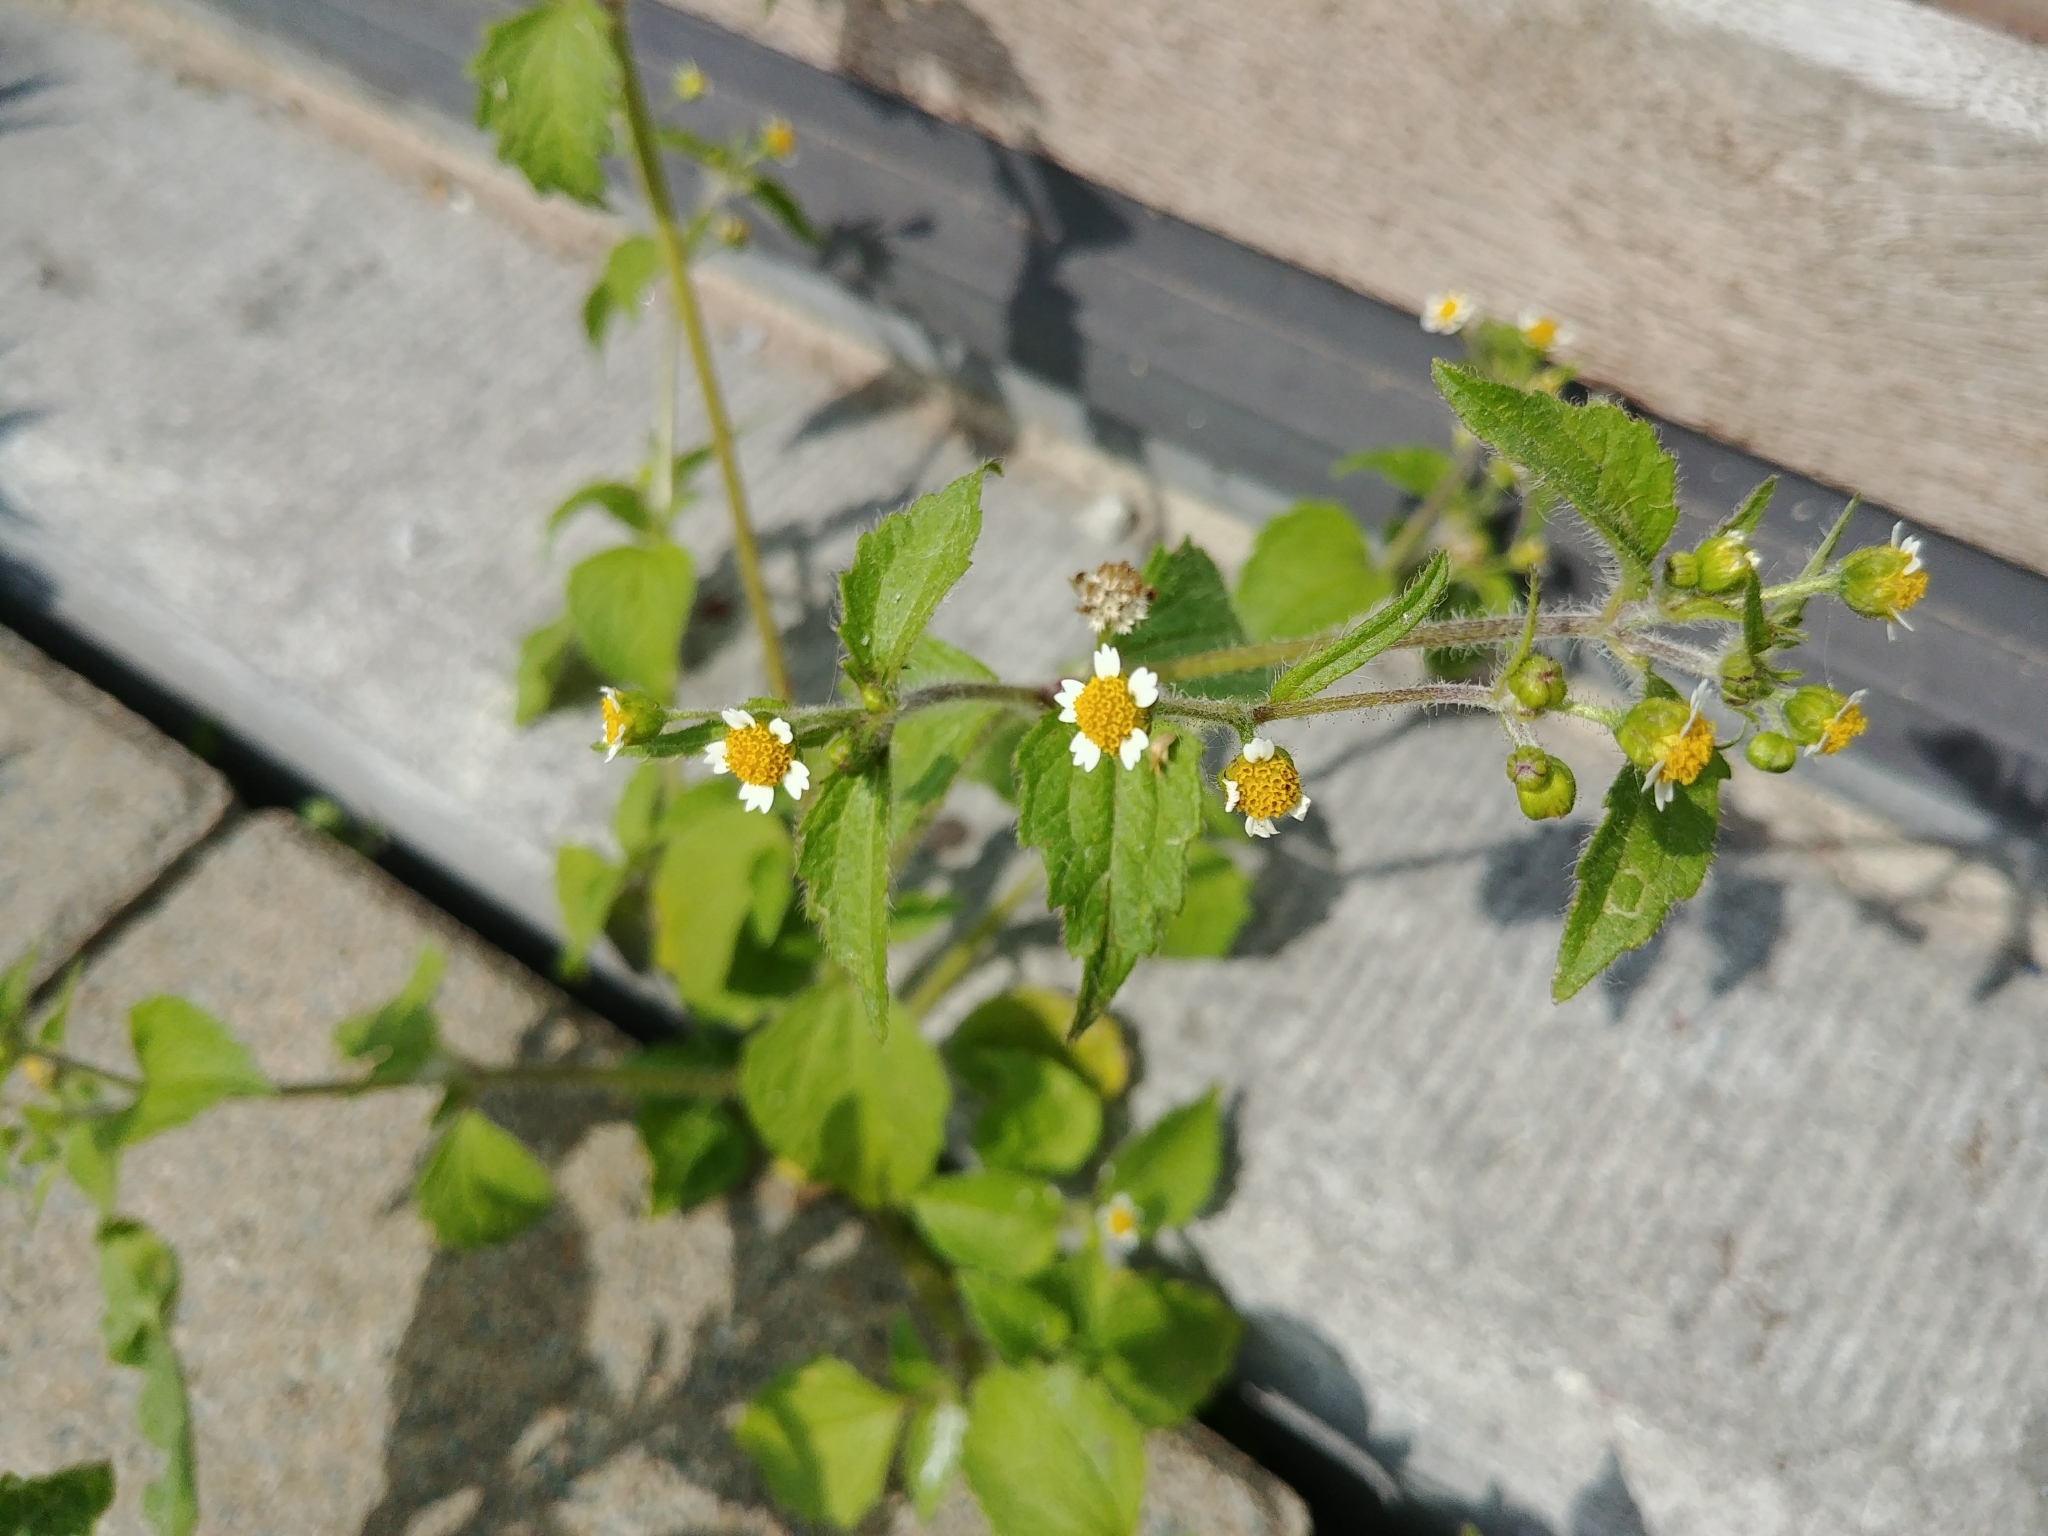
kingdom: Plantae
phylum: Tracheophyta
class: Magnoliopsida
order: Asterales
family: Asteraceae
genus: Galinsoga
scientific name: Galinsoga quadriradiata
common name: Shaggy soldier
